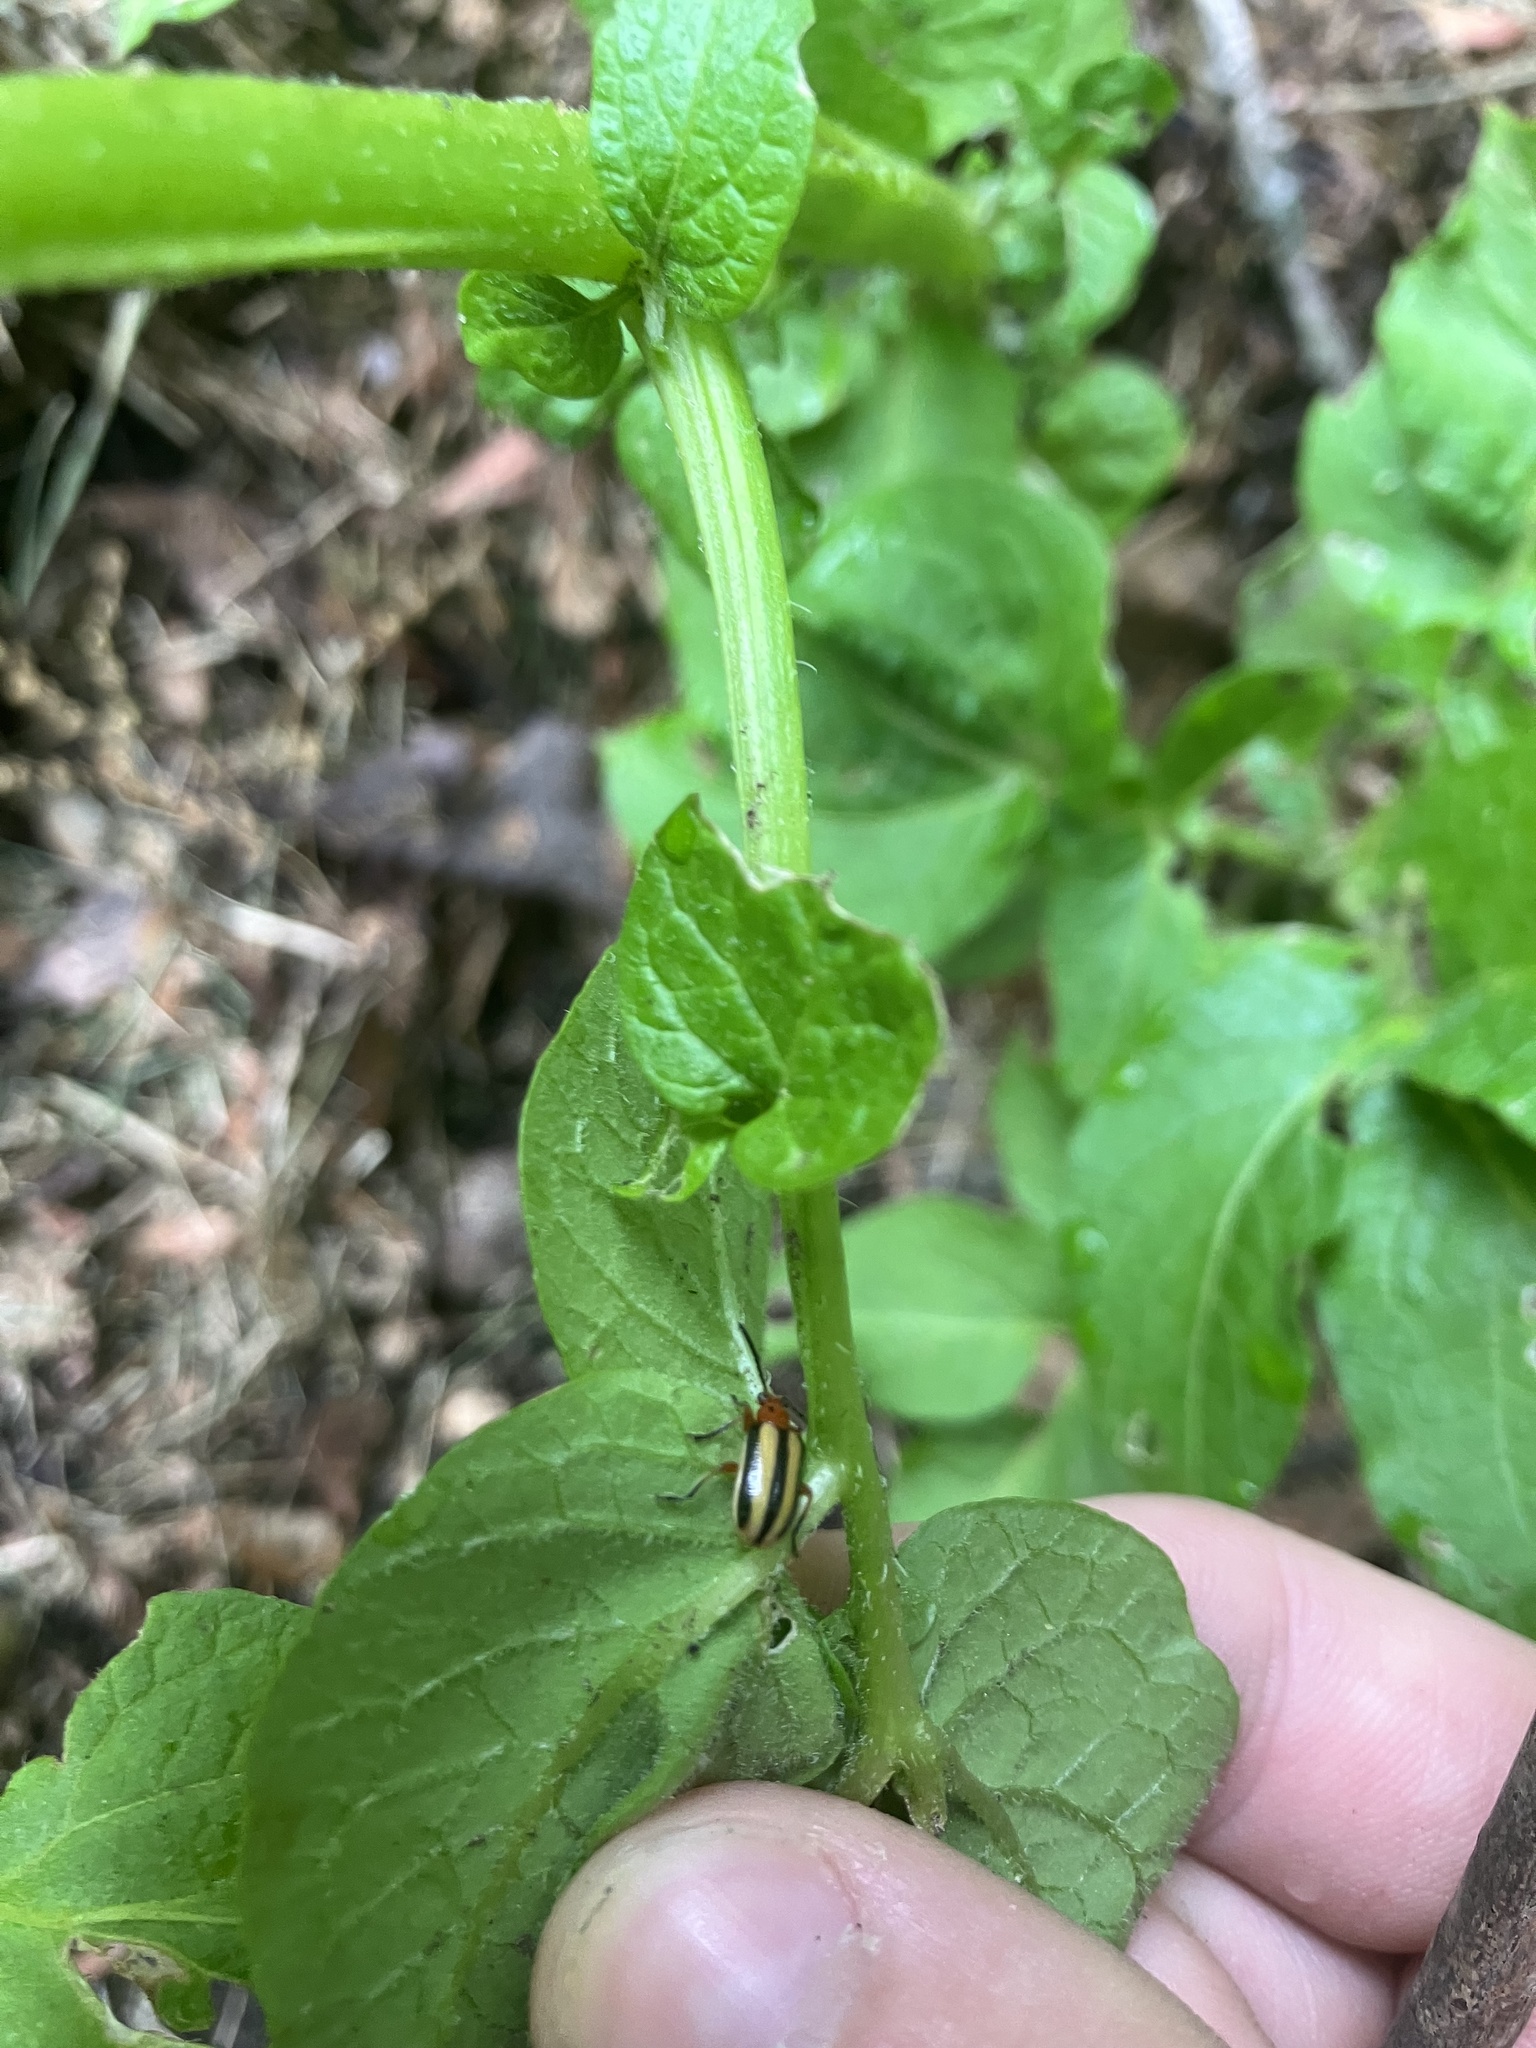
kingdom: Animalia
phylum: Arthropoda
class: Insecta
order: Coleoptera
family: Chrysomelidae
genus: Lema
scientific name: Lema daturaphila
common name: Leaf beetle
